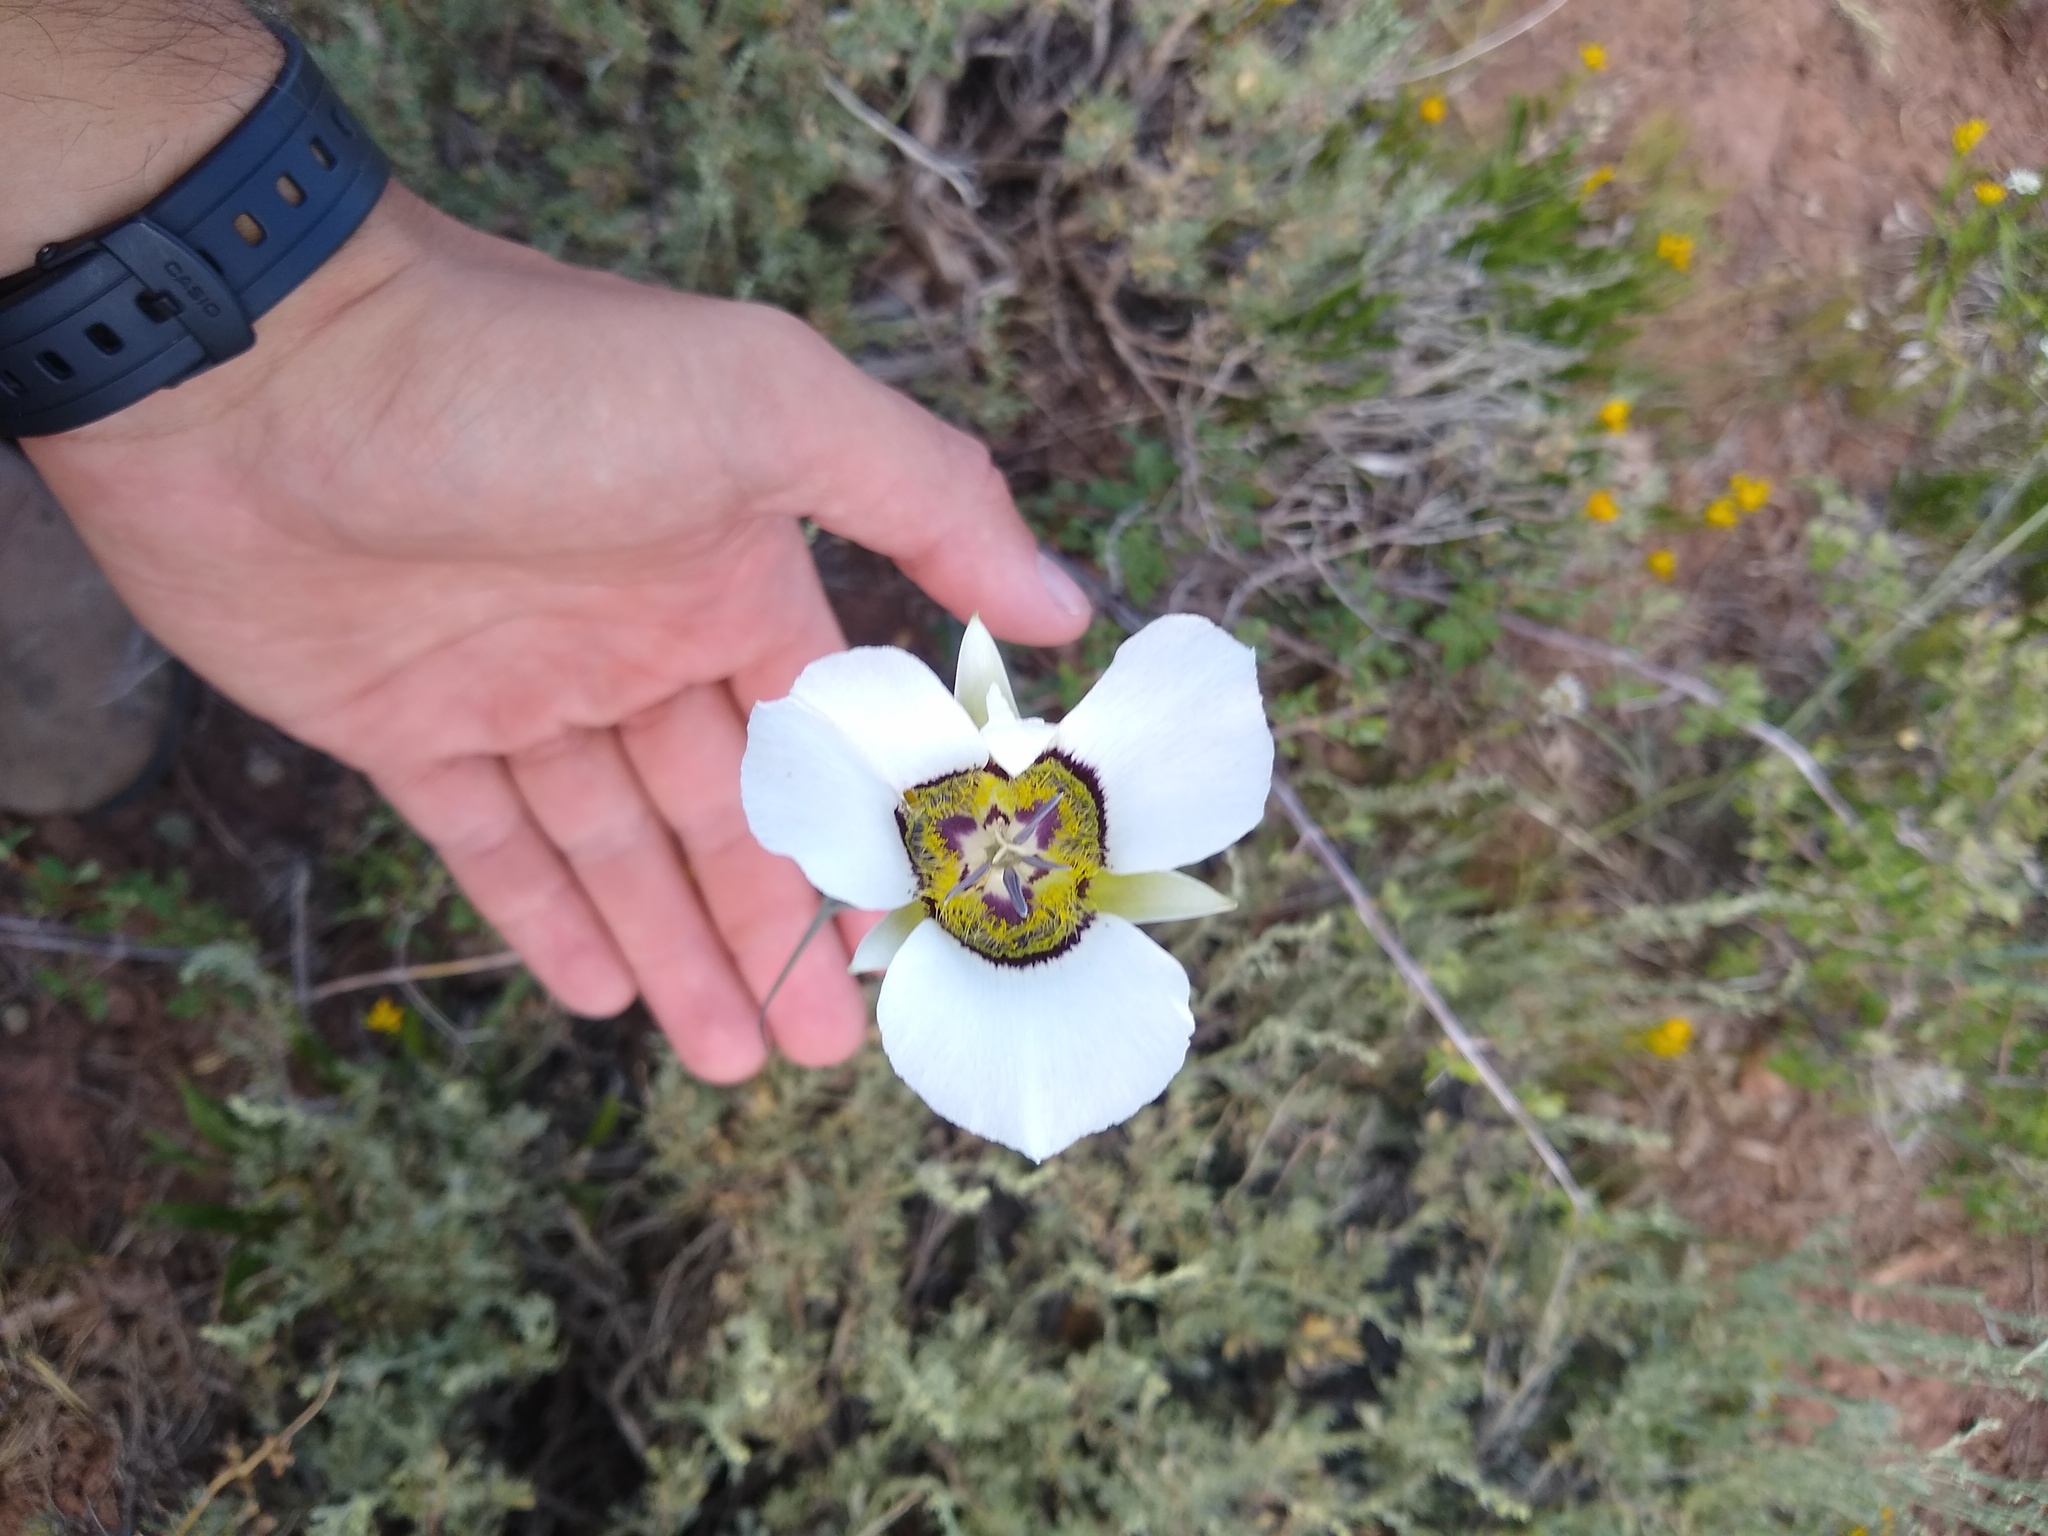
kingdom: Plantae
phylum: Tracheophyta
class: Liliopsida
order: Liliales
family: Liliaceae
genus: Calochortus
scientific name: Calochortus gunnisonii
